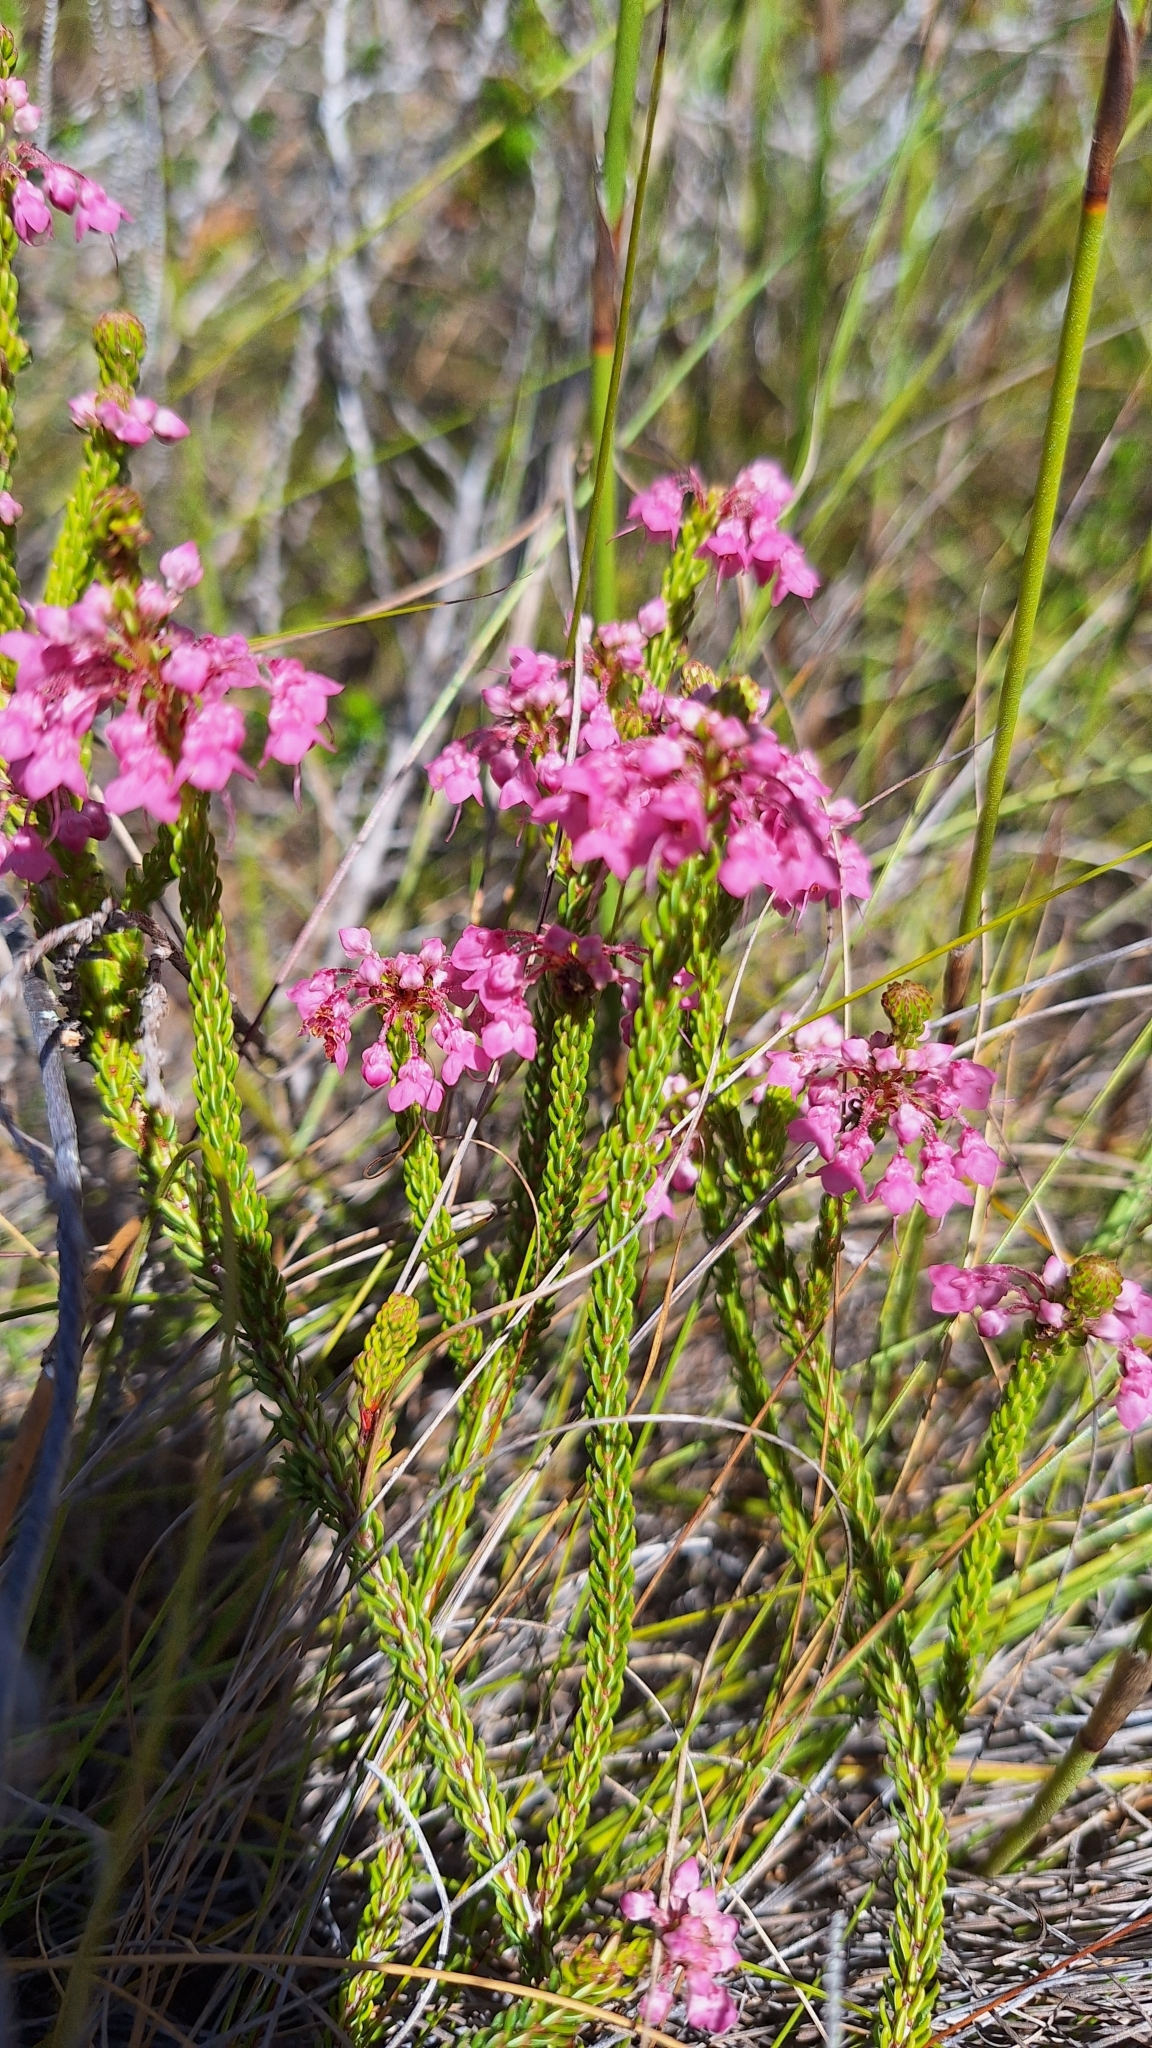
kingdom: Plantae
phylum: Tracheophyta
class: Magnoliopsida
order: Ericales
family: Ericaceae
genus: Erica
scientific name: Erica seriphiifolia
